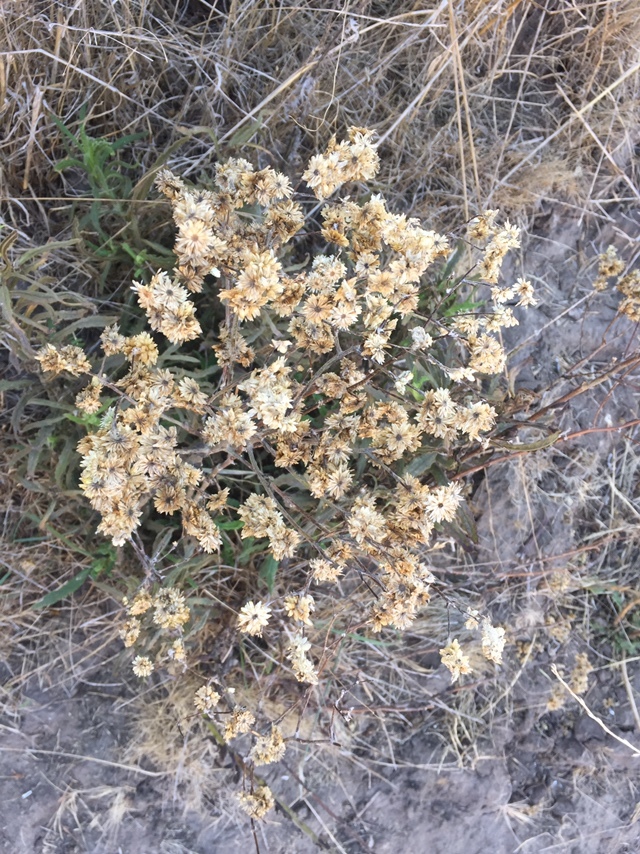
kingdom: Plantae
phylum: Tracheophyta
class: Magnoliopsida
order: Asterales
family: Asteraceae
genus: Pseudognaphalium
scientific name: Pseudognaphalium californicum
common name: California rabbit-tobacco
